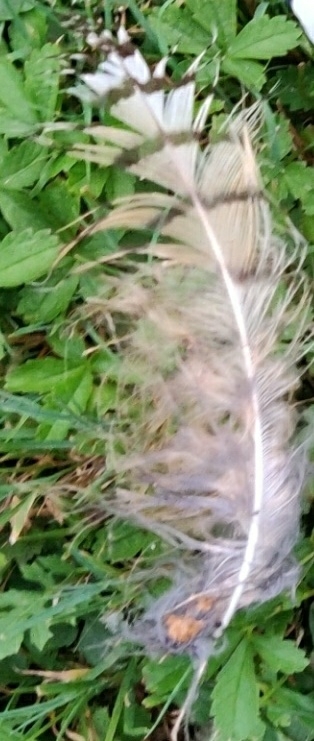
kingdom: Animalia
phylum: Chordata
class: Aves
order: Strigiformes
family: Strigidae
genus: Bubo
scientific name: Bubo virginianus
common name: Great horned owl
